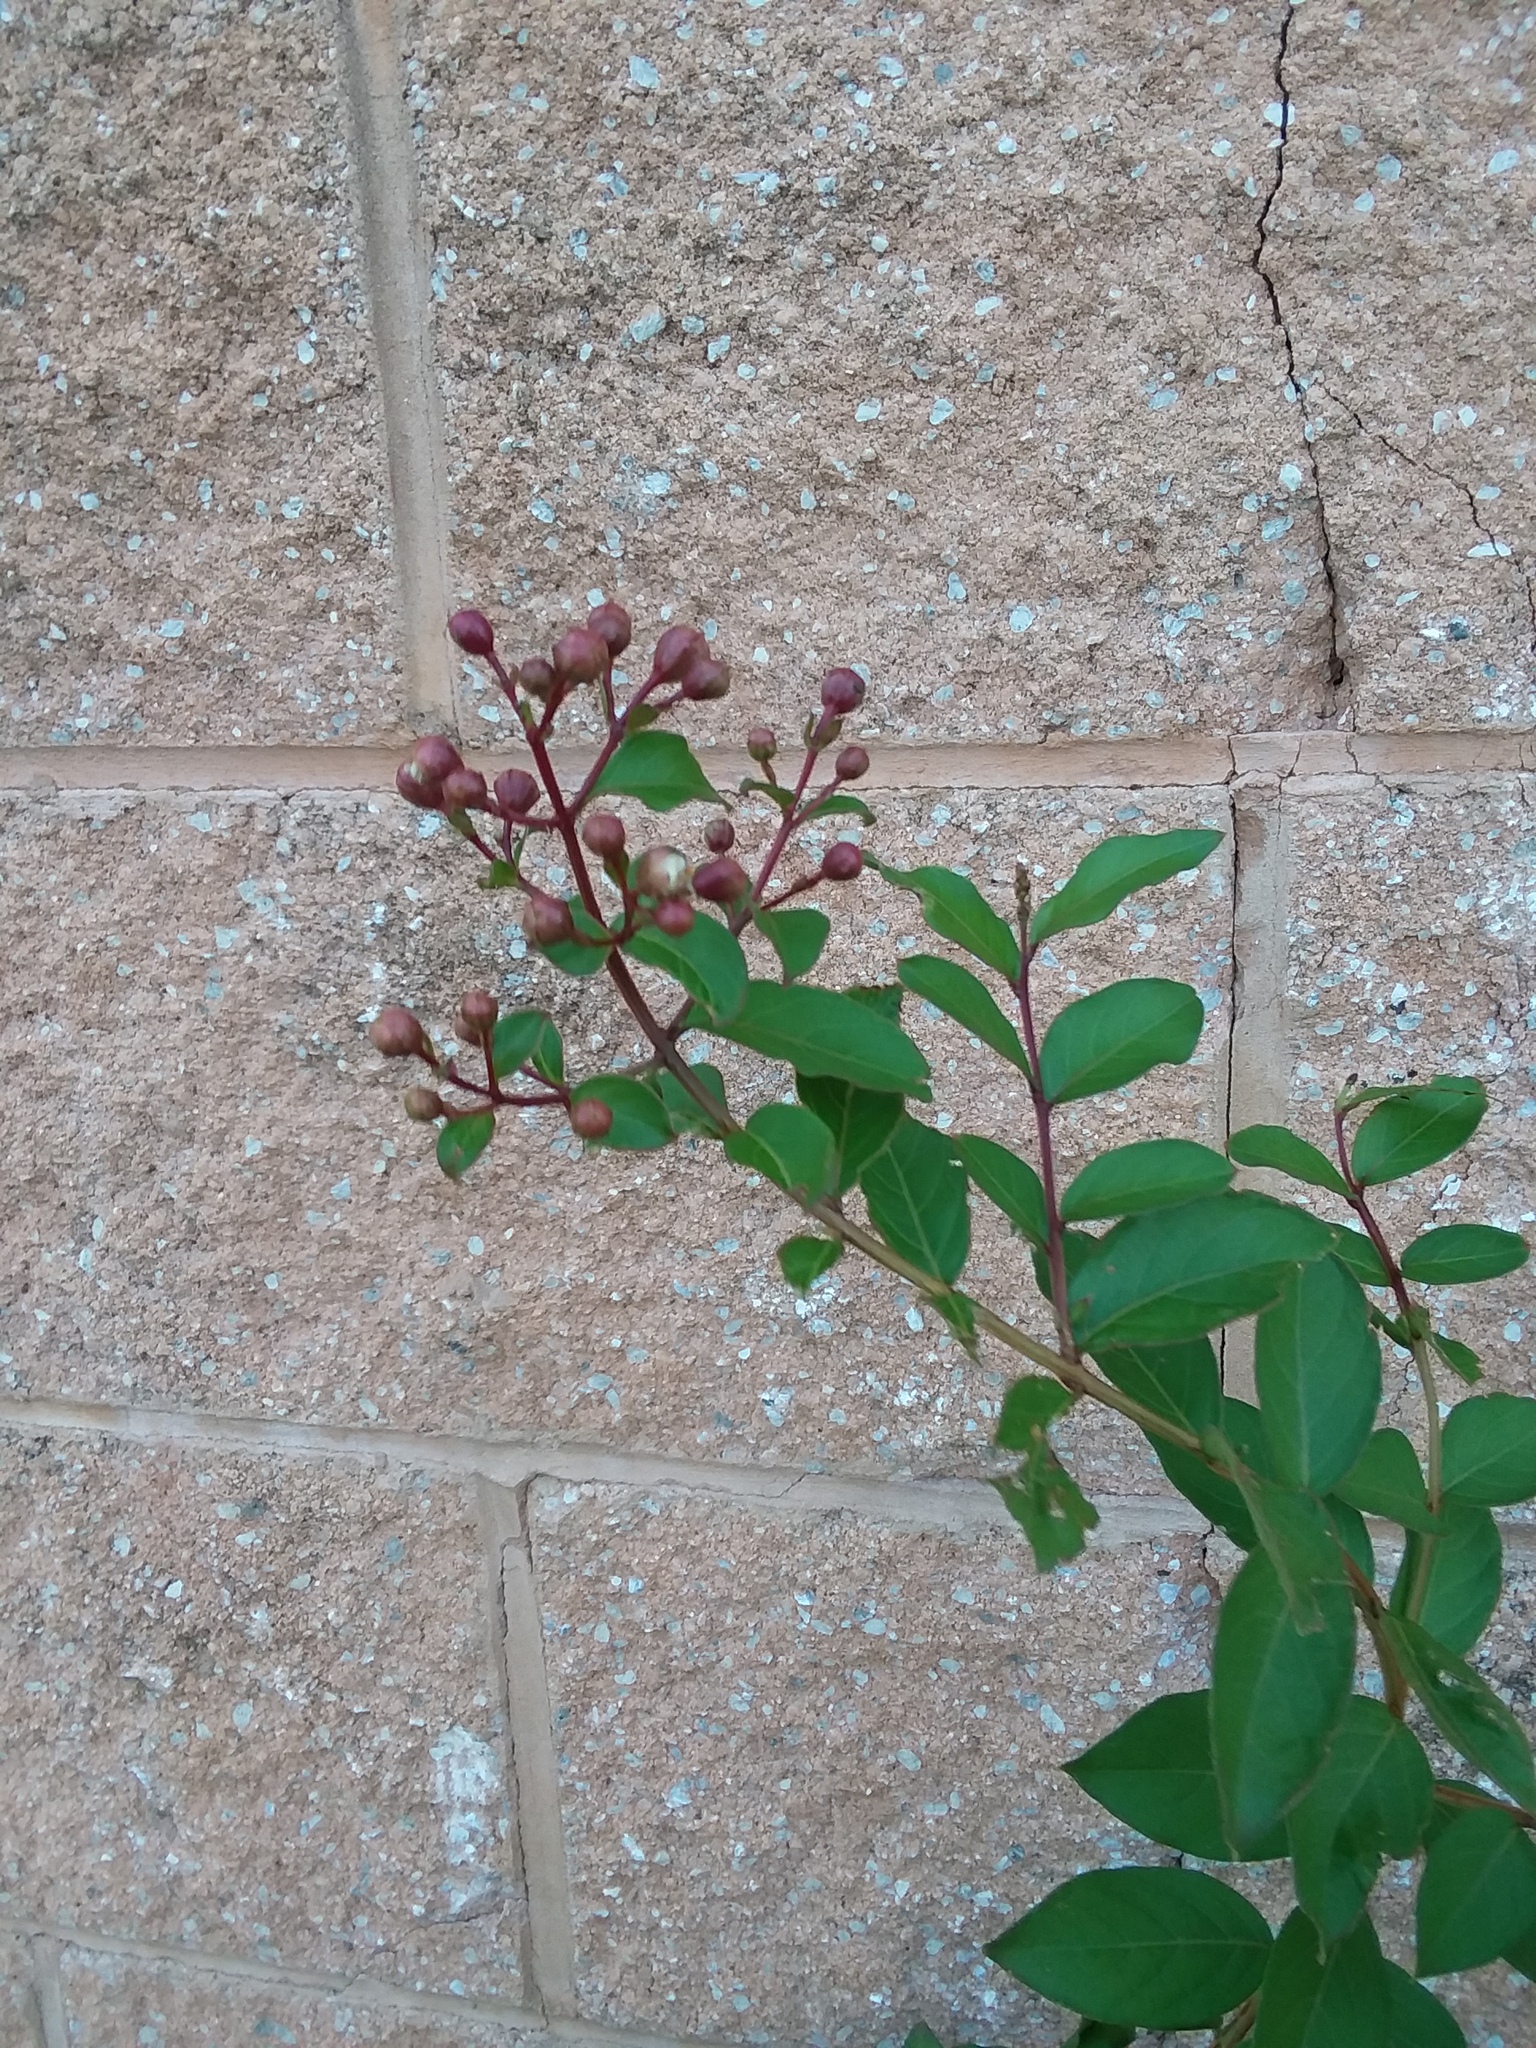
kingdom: Plantae
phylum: Tracheophyta
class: Magnoliopsida
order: Myrtales
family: Lythraceae
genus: Lagerstroemia
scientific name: Lagerstroemia indica
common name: Crape-myrtle
